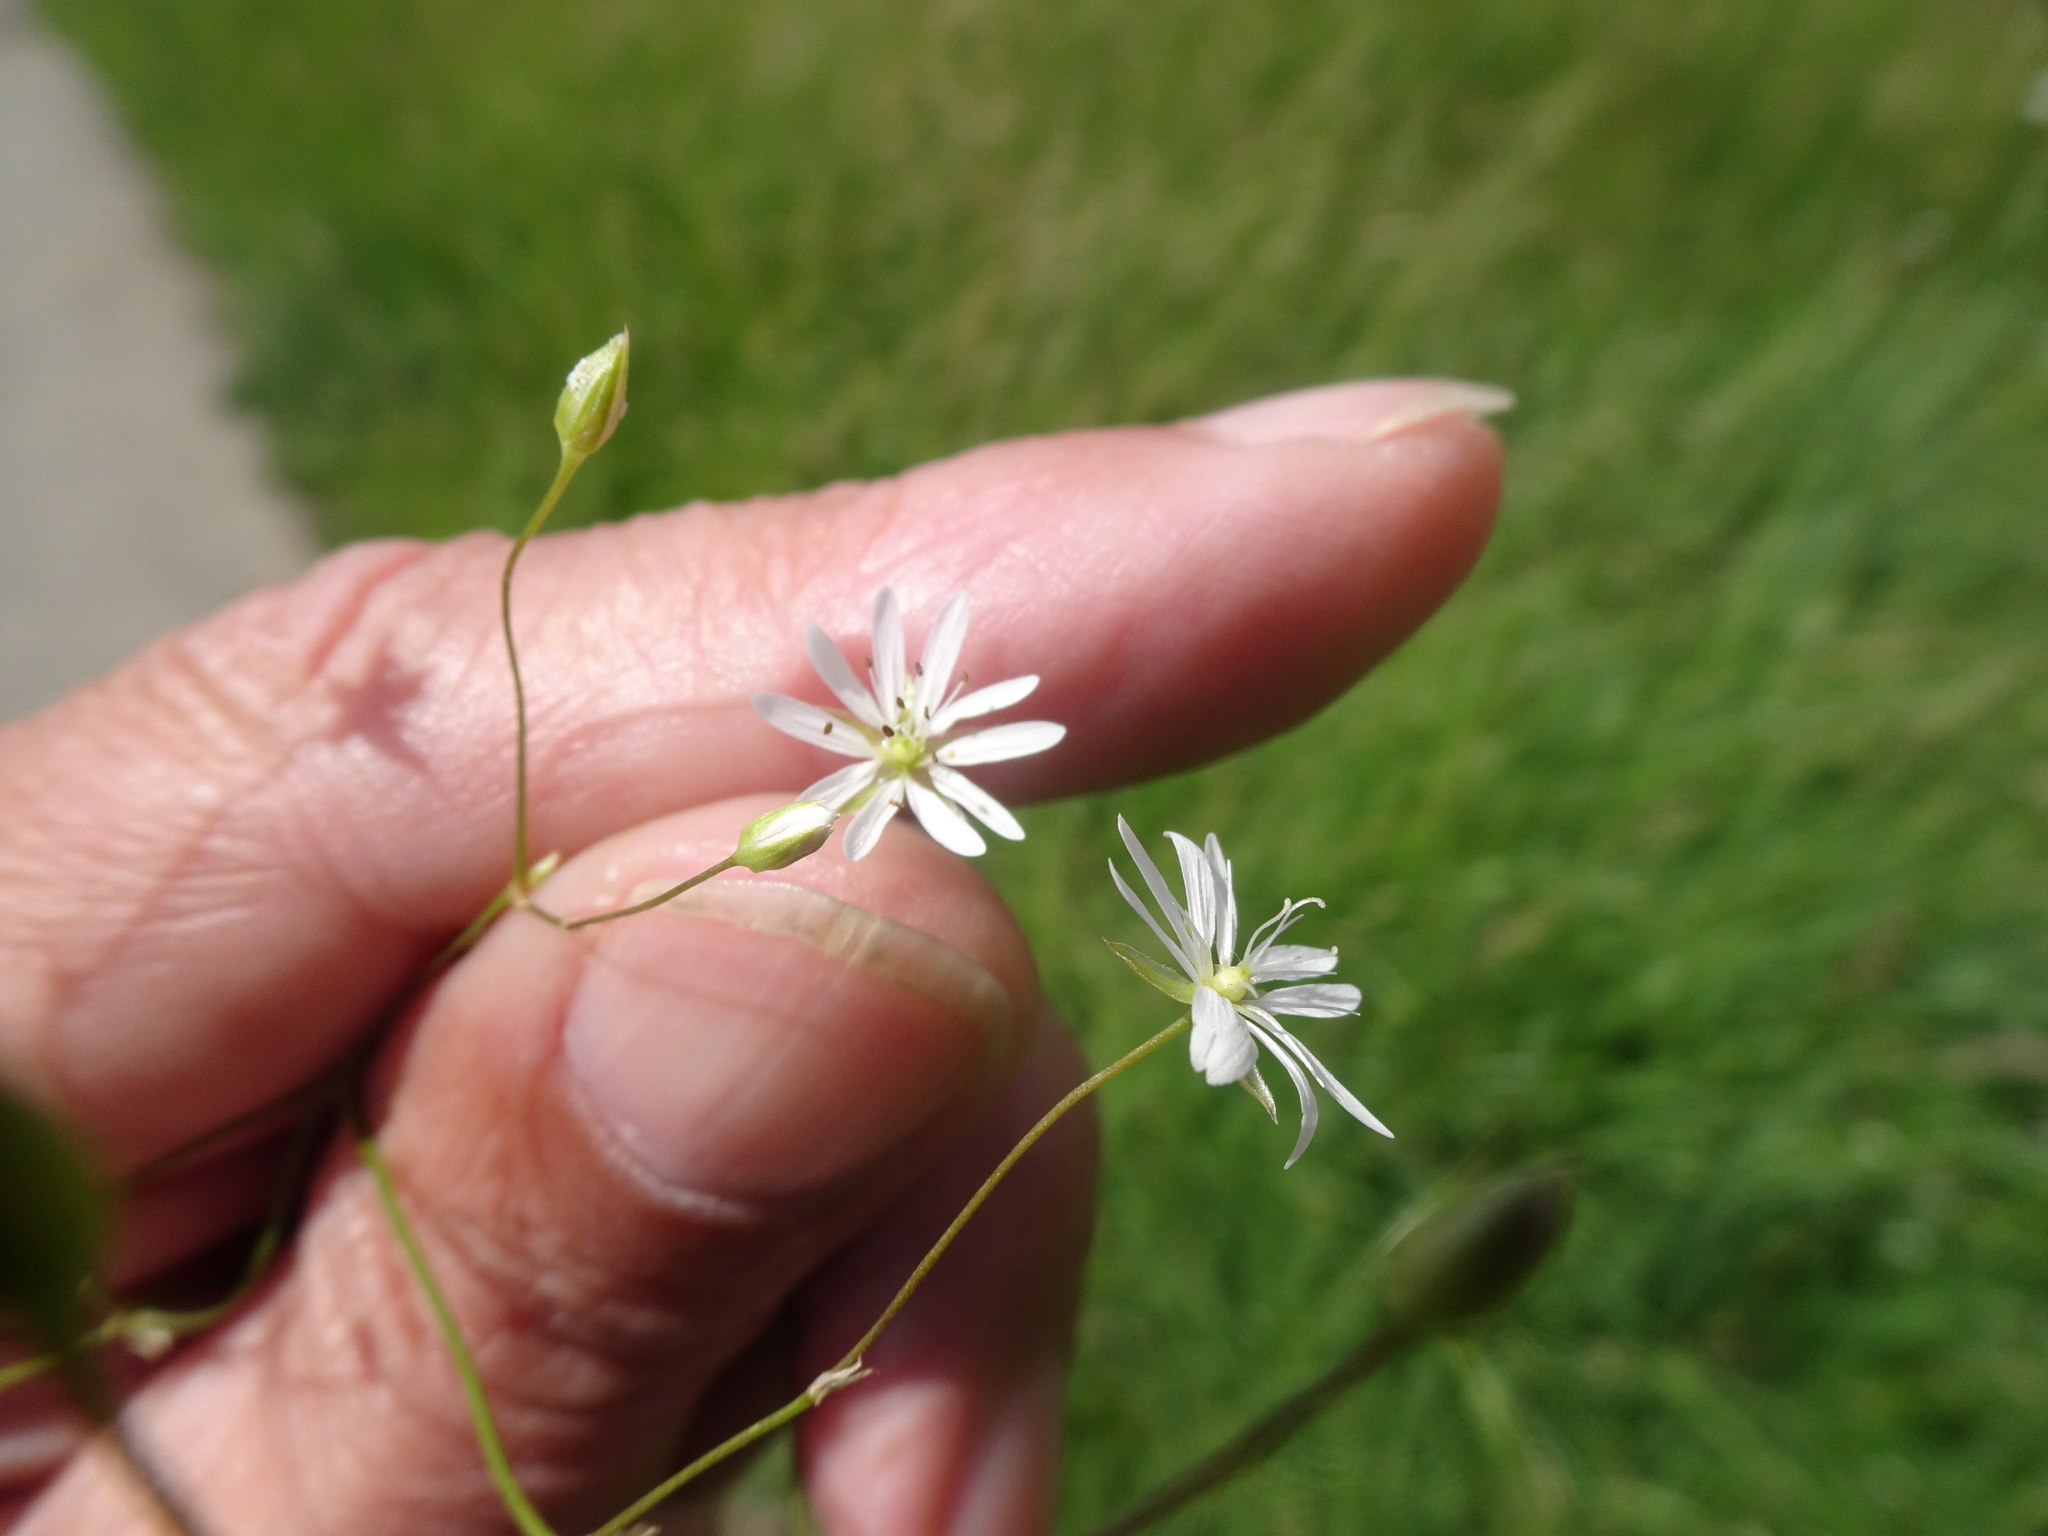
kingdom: Plantae
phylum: Tracheophyta
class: Magnoliopsida
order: Caryophyllales
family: Caryophyllaceae
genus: Stellaria
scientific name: Stellaria graminea
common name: Grass-like starwort
